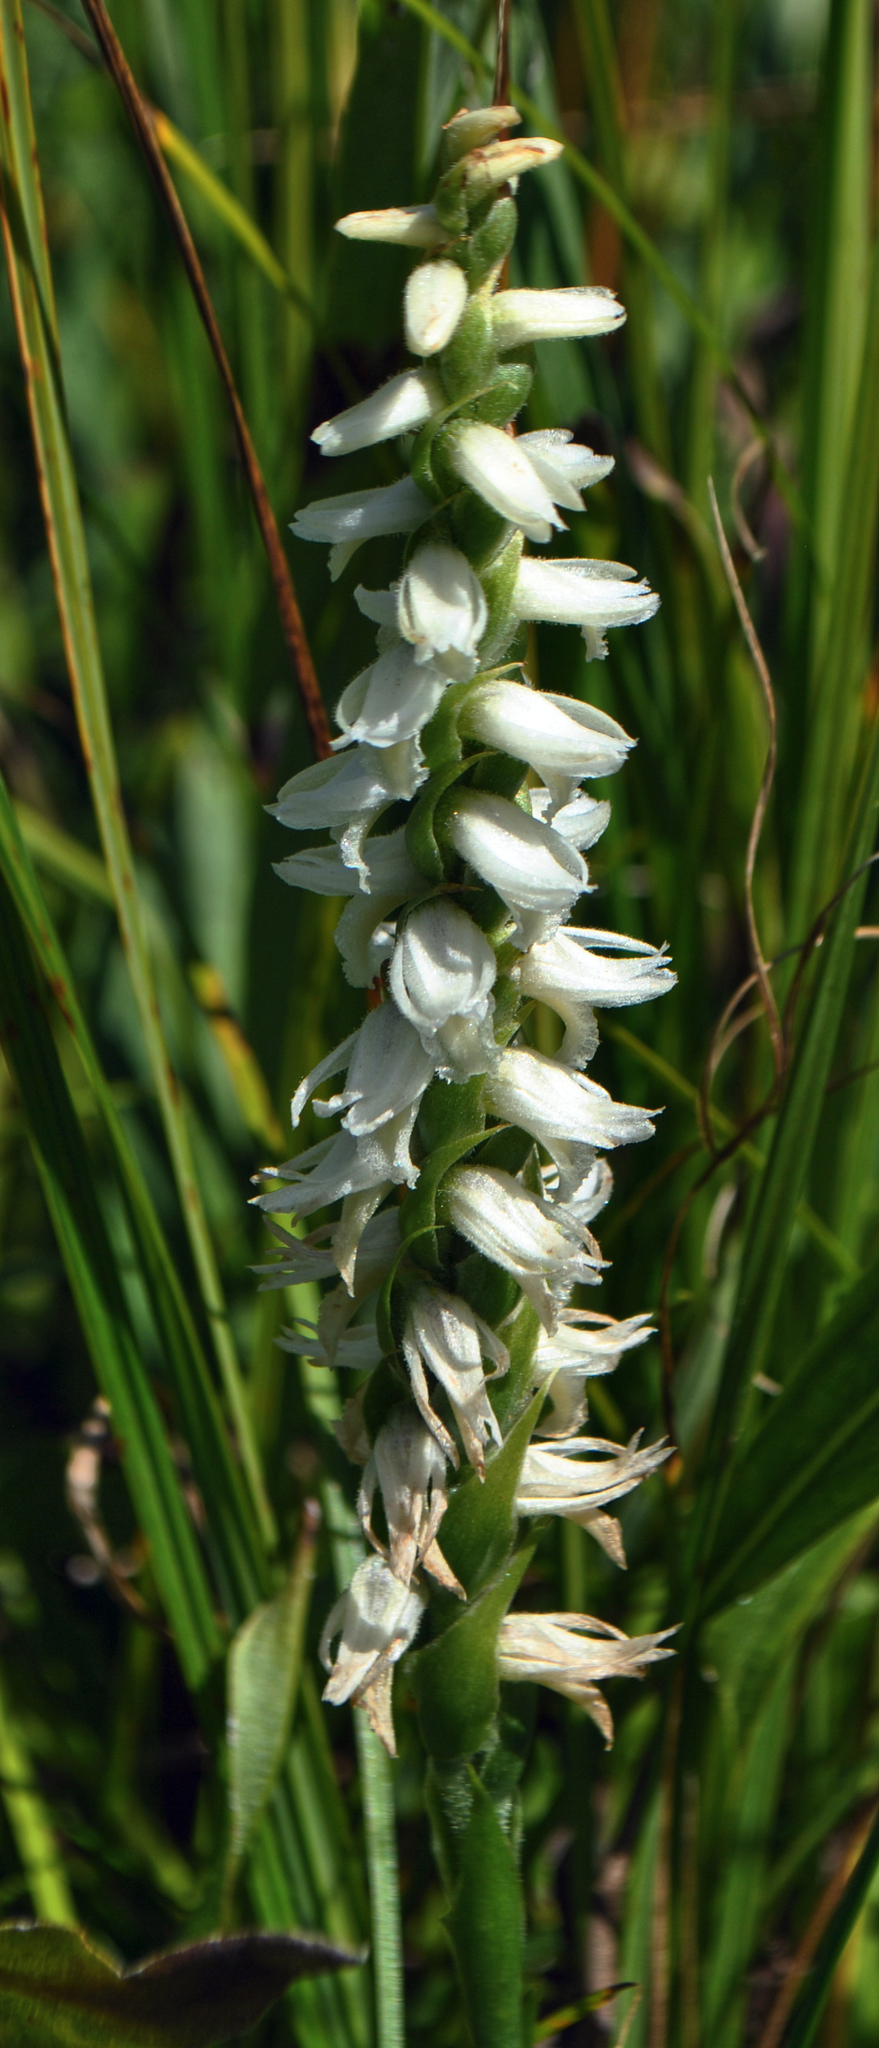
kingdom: Plantae
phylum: Tracheophyta
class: Liliopsida
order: Asparagales
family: Orchidaceae
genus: Spiranthes
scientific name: Spiranthes incurva
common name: Sphinx ladies'-tresses
